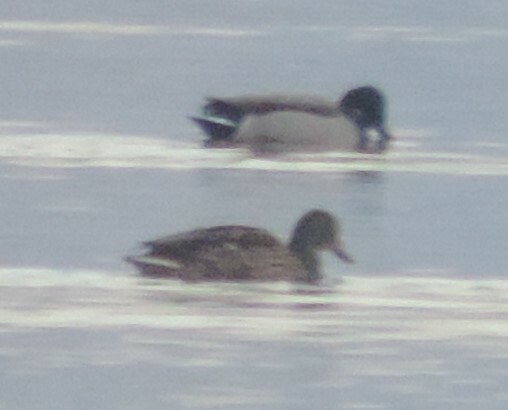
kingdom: Animalia
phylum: Chordata
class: Aves
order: Anseriformes
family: Anatidae
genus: Anas
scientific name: Anas platyrhynchos
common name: Mallard
